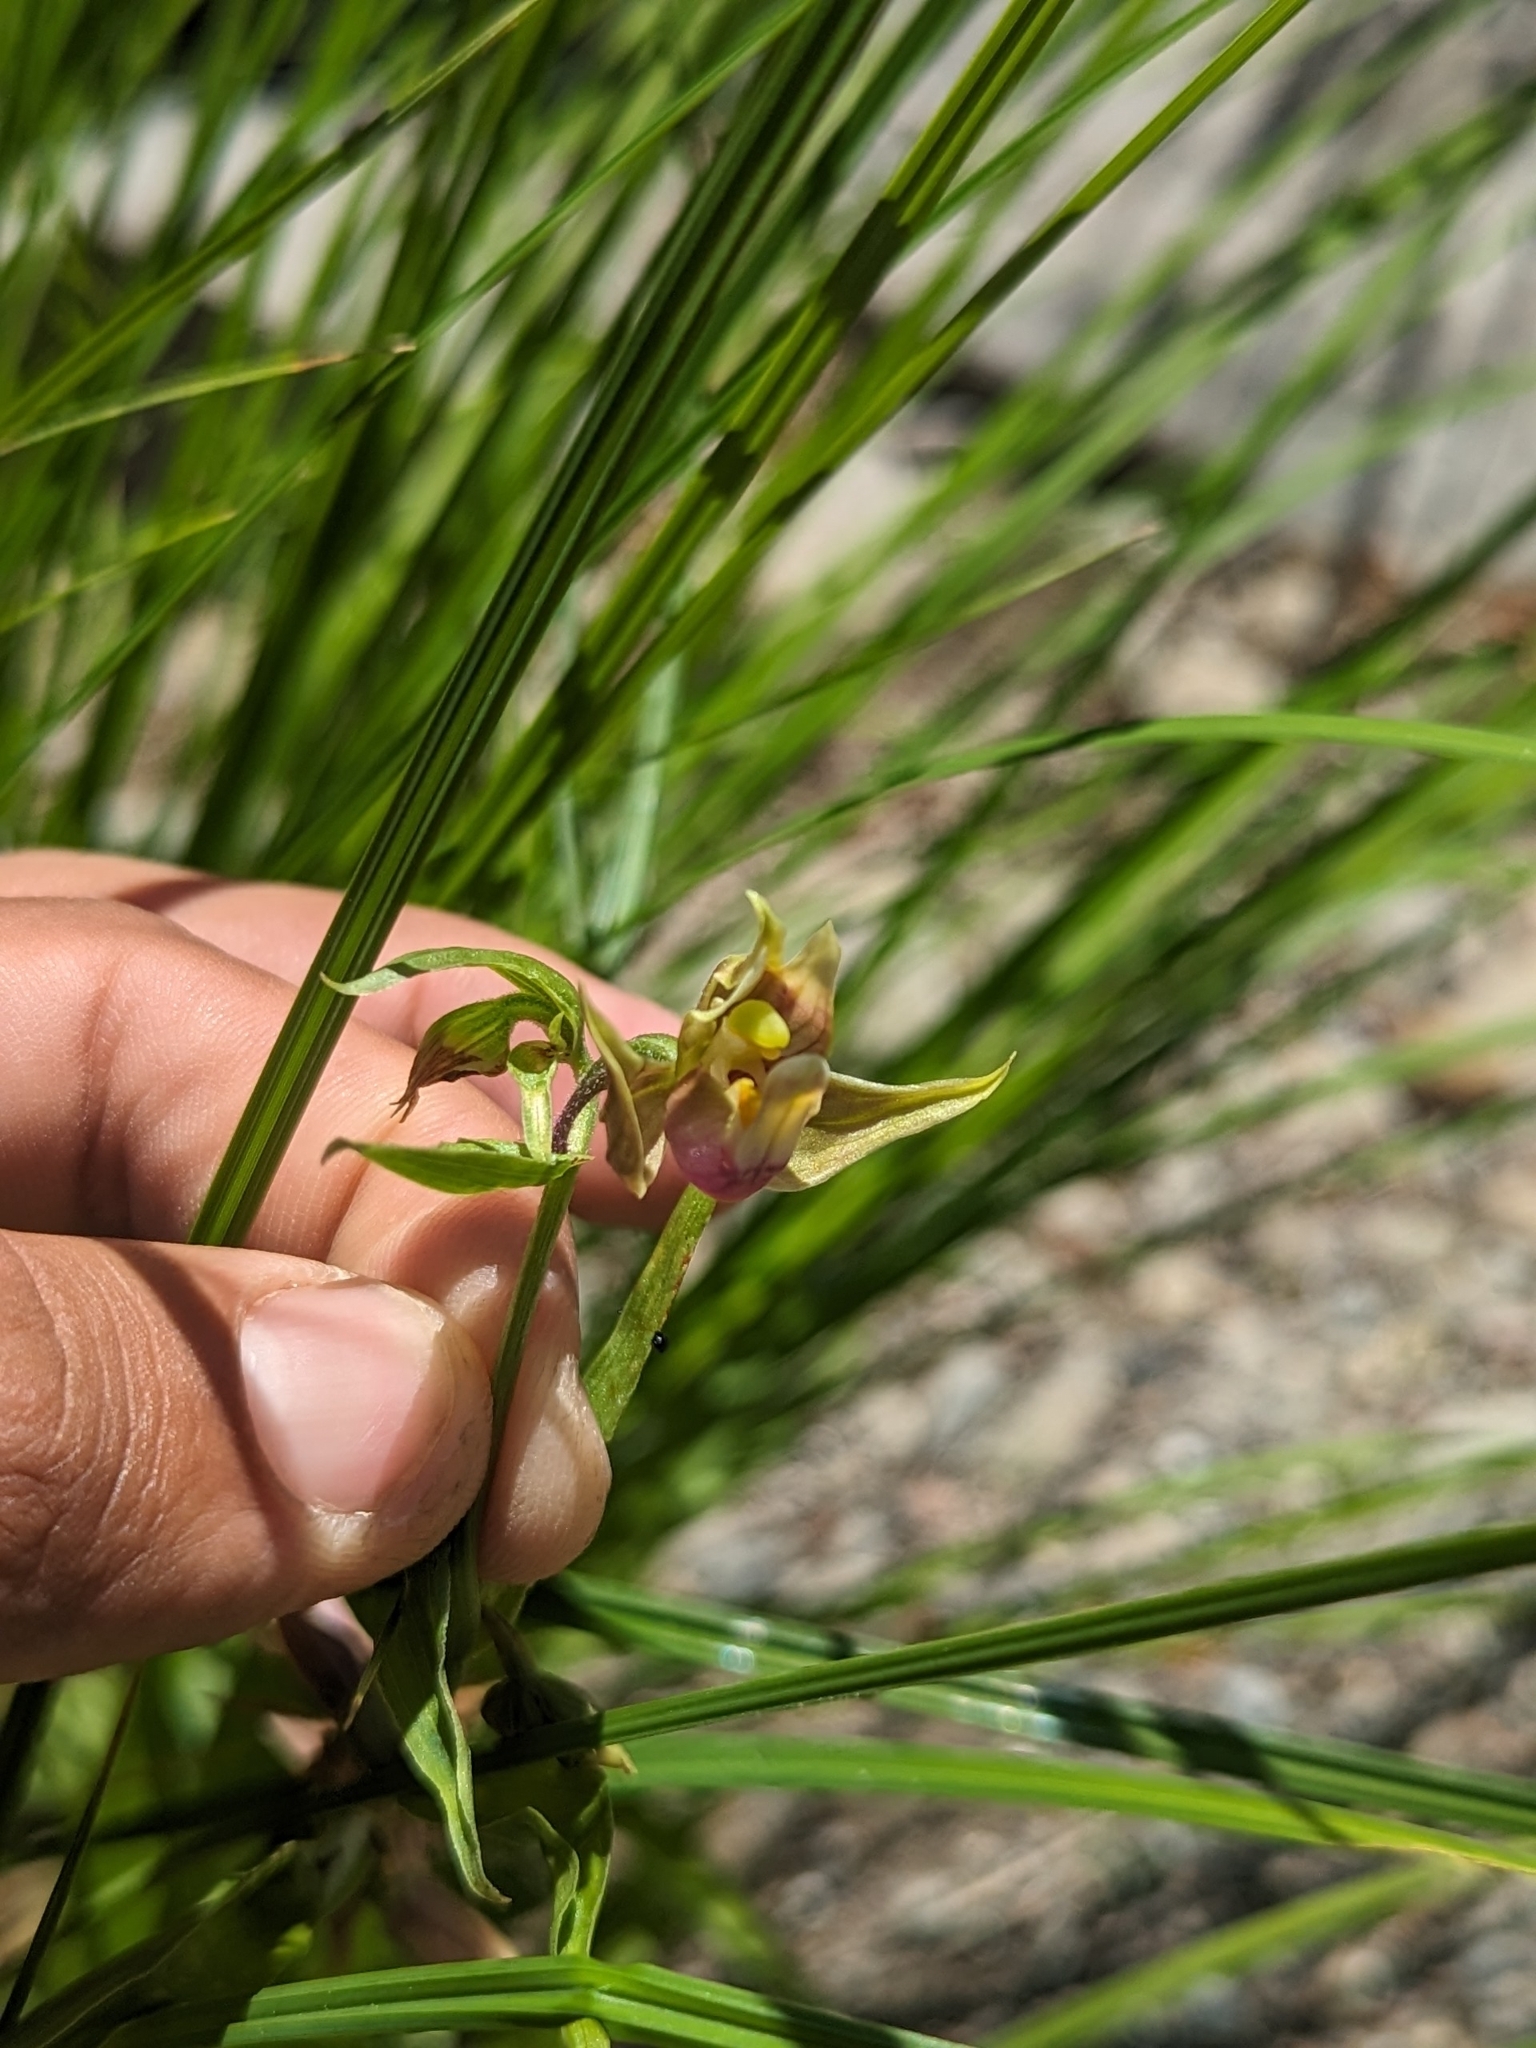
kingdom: Plantae
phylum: Tracheophyta
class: Liliopsida
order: Asparagales
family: Orchidaceae
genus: Epipactis
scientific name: Epipactis gigantea
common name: Chatterbox
